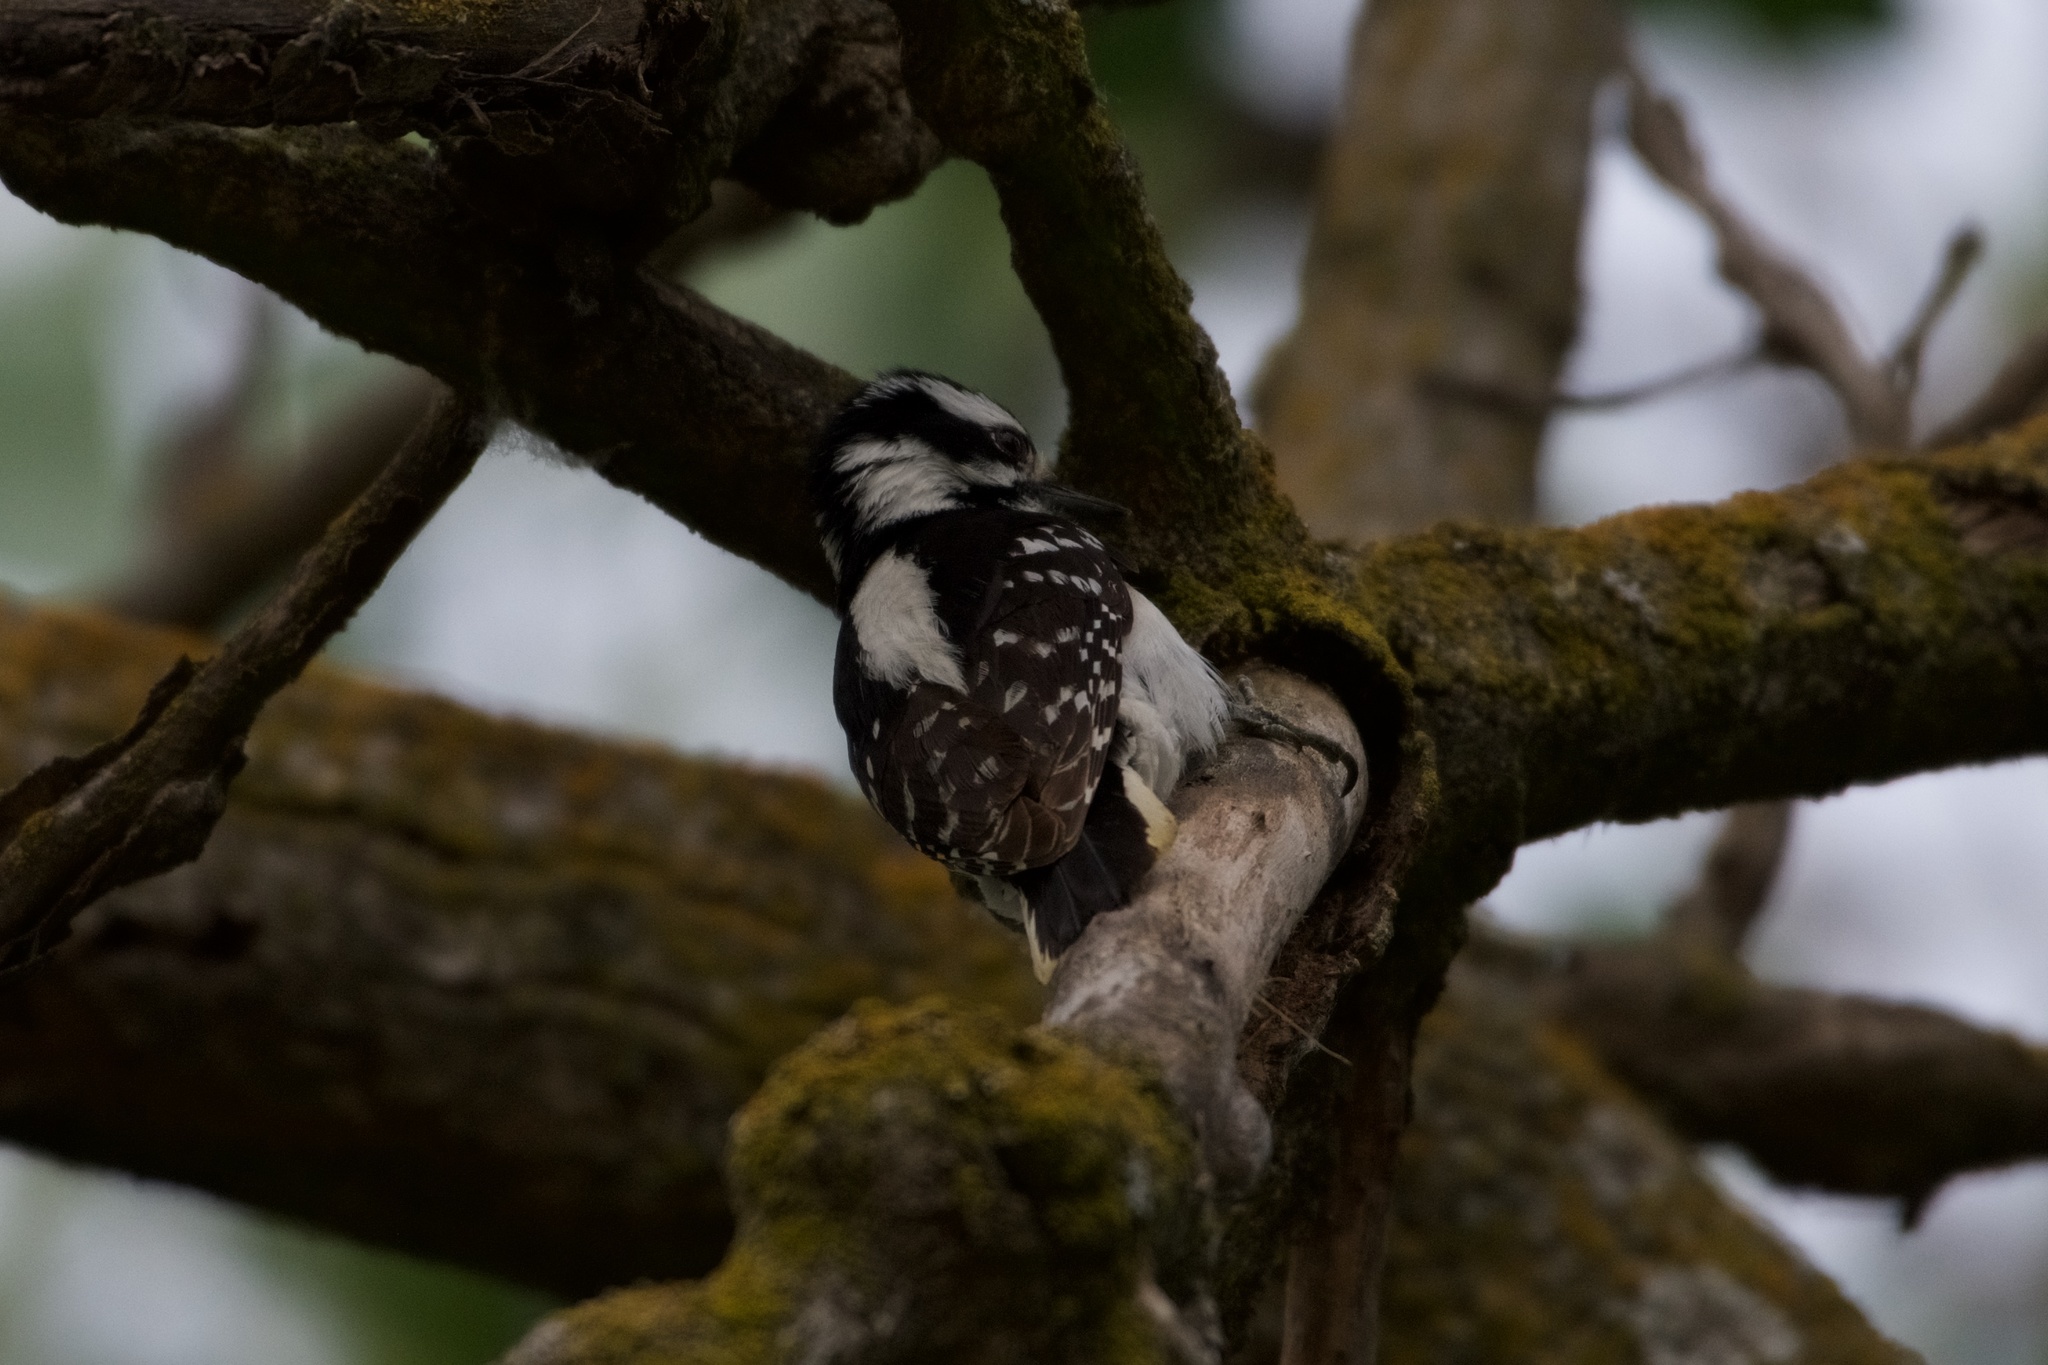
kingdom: Animalia
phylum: Chordata
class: Aves
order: Piciformes
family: Picidae
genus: Dryobates
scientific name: Dryobates pubescens
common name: Downy woodpecker
